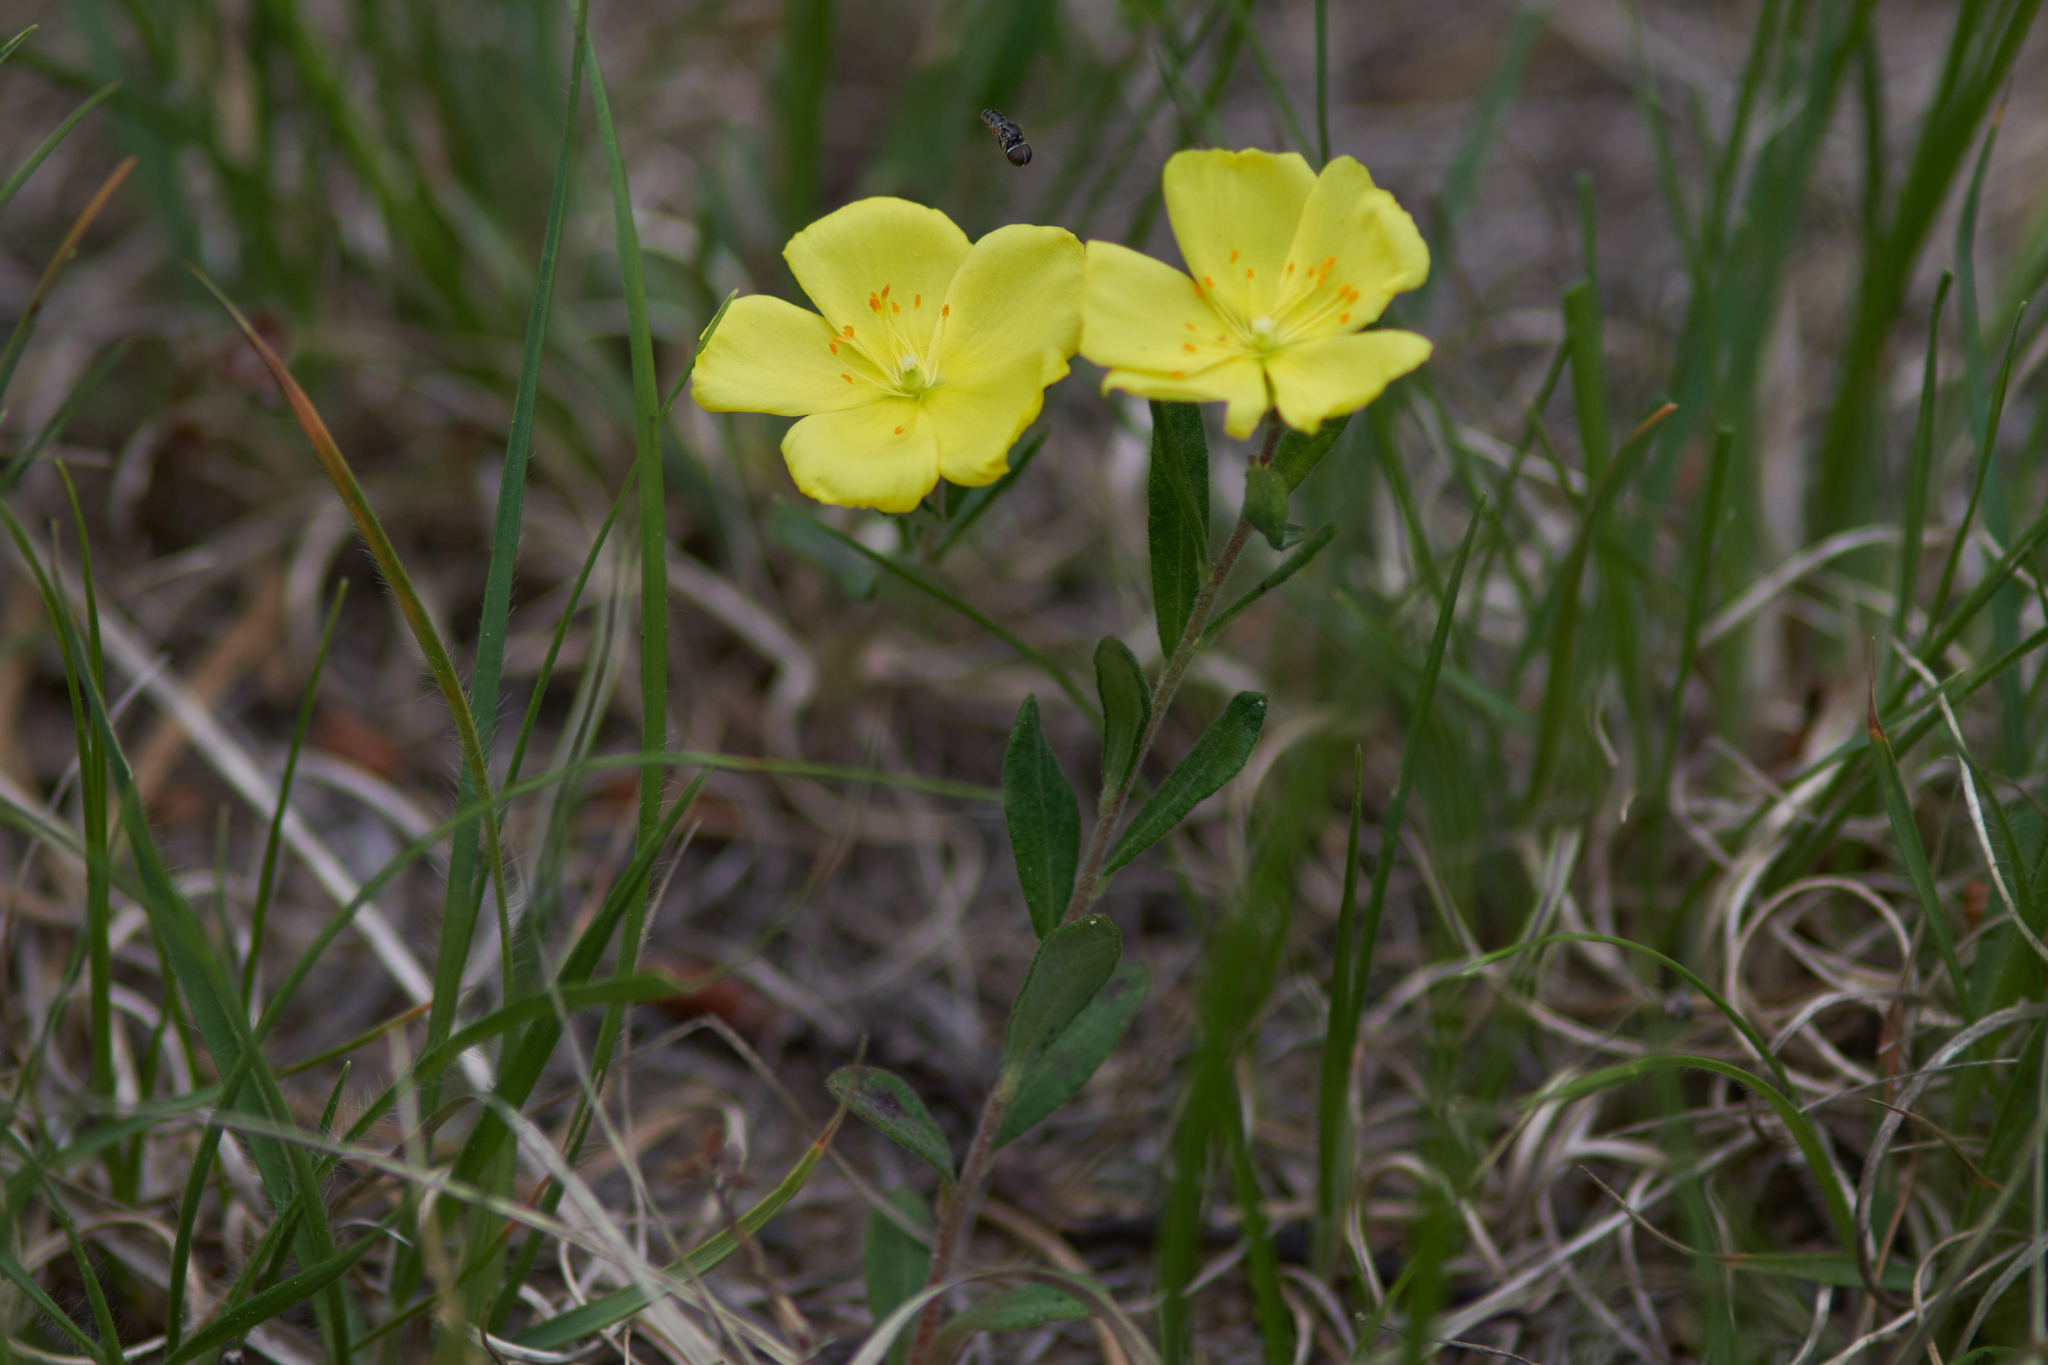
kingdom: Plantae
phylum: Tracheophyta
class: Magnoliopsida
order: Malvales
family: Cistaceae
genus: Crocanthemum
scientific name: Crocanthemum canadense
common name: Canada frostweed
